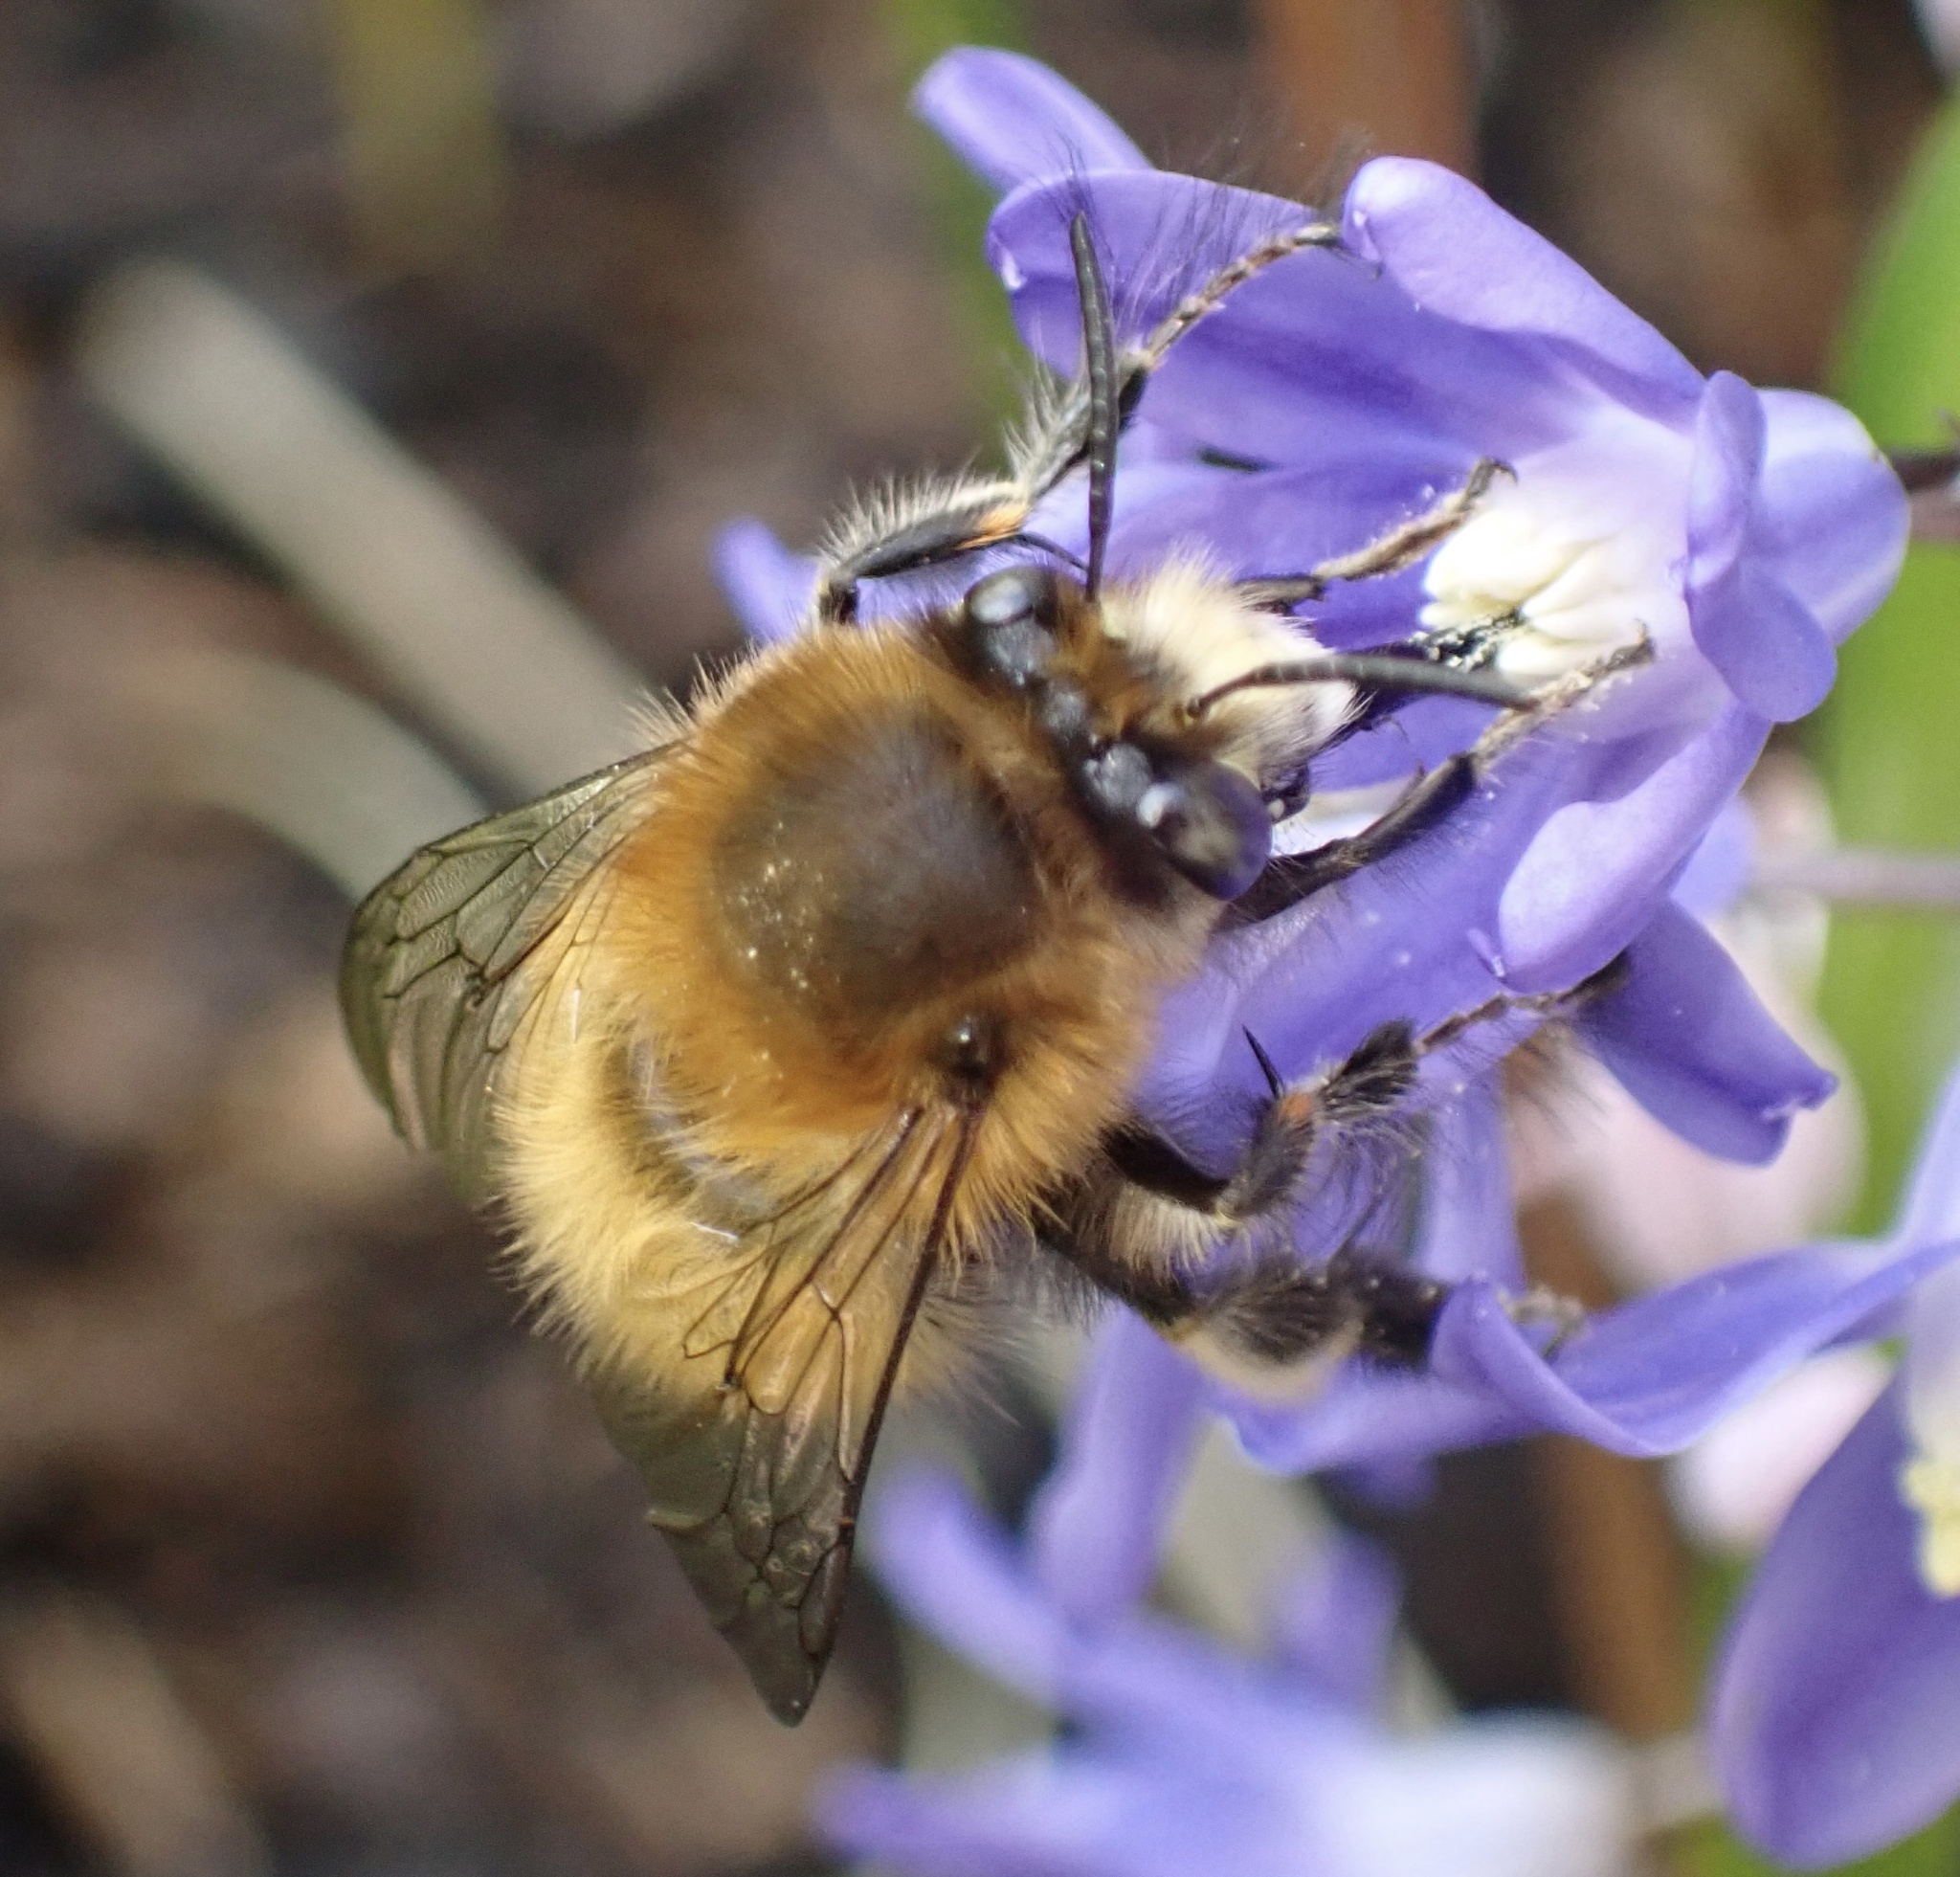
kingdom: Animalia
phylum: Arthropoda
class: Insecta
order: Hymenoptera
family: Apidae
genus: Anthophora
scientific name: Anthophora plumipes
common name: Hairy-footed flower bee
